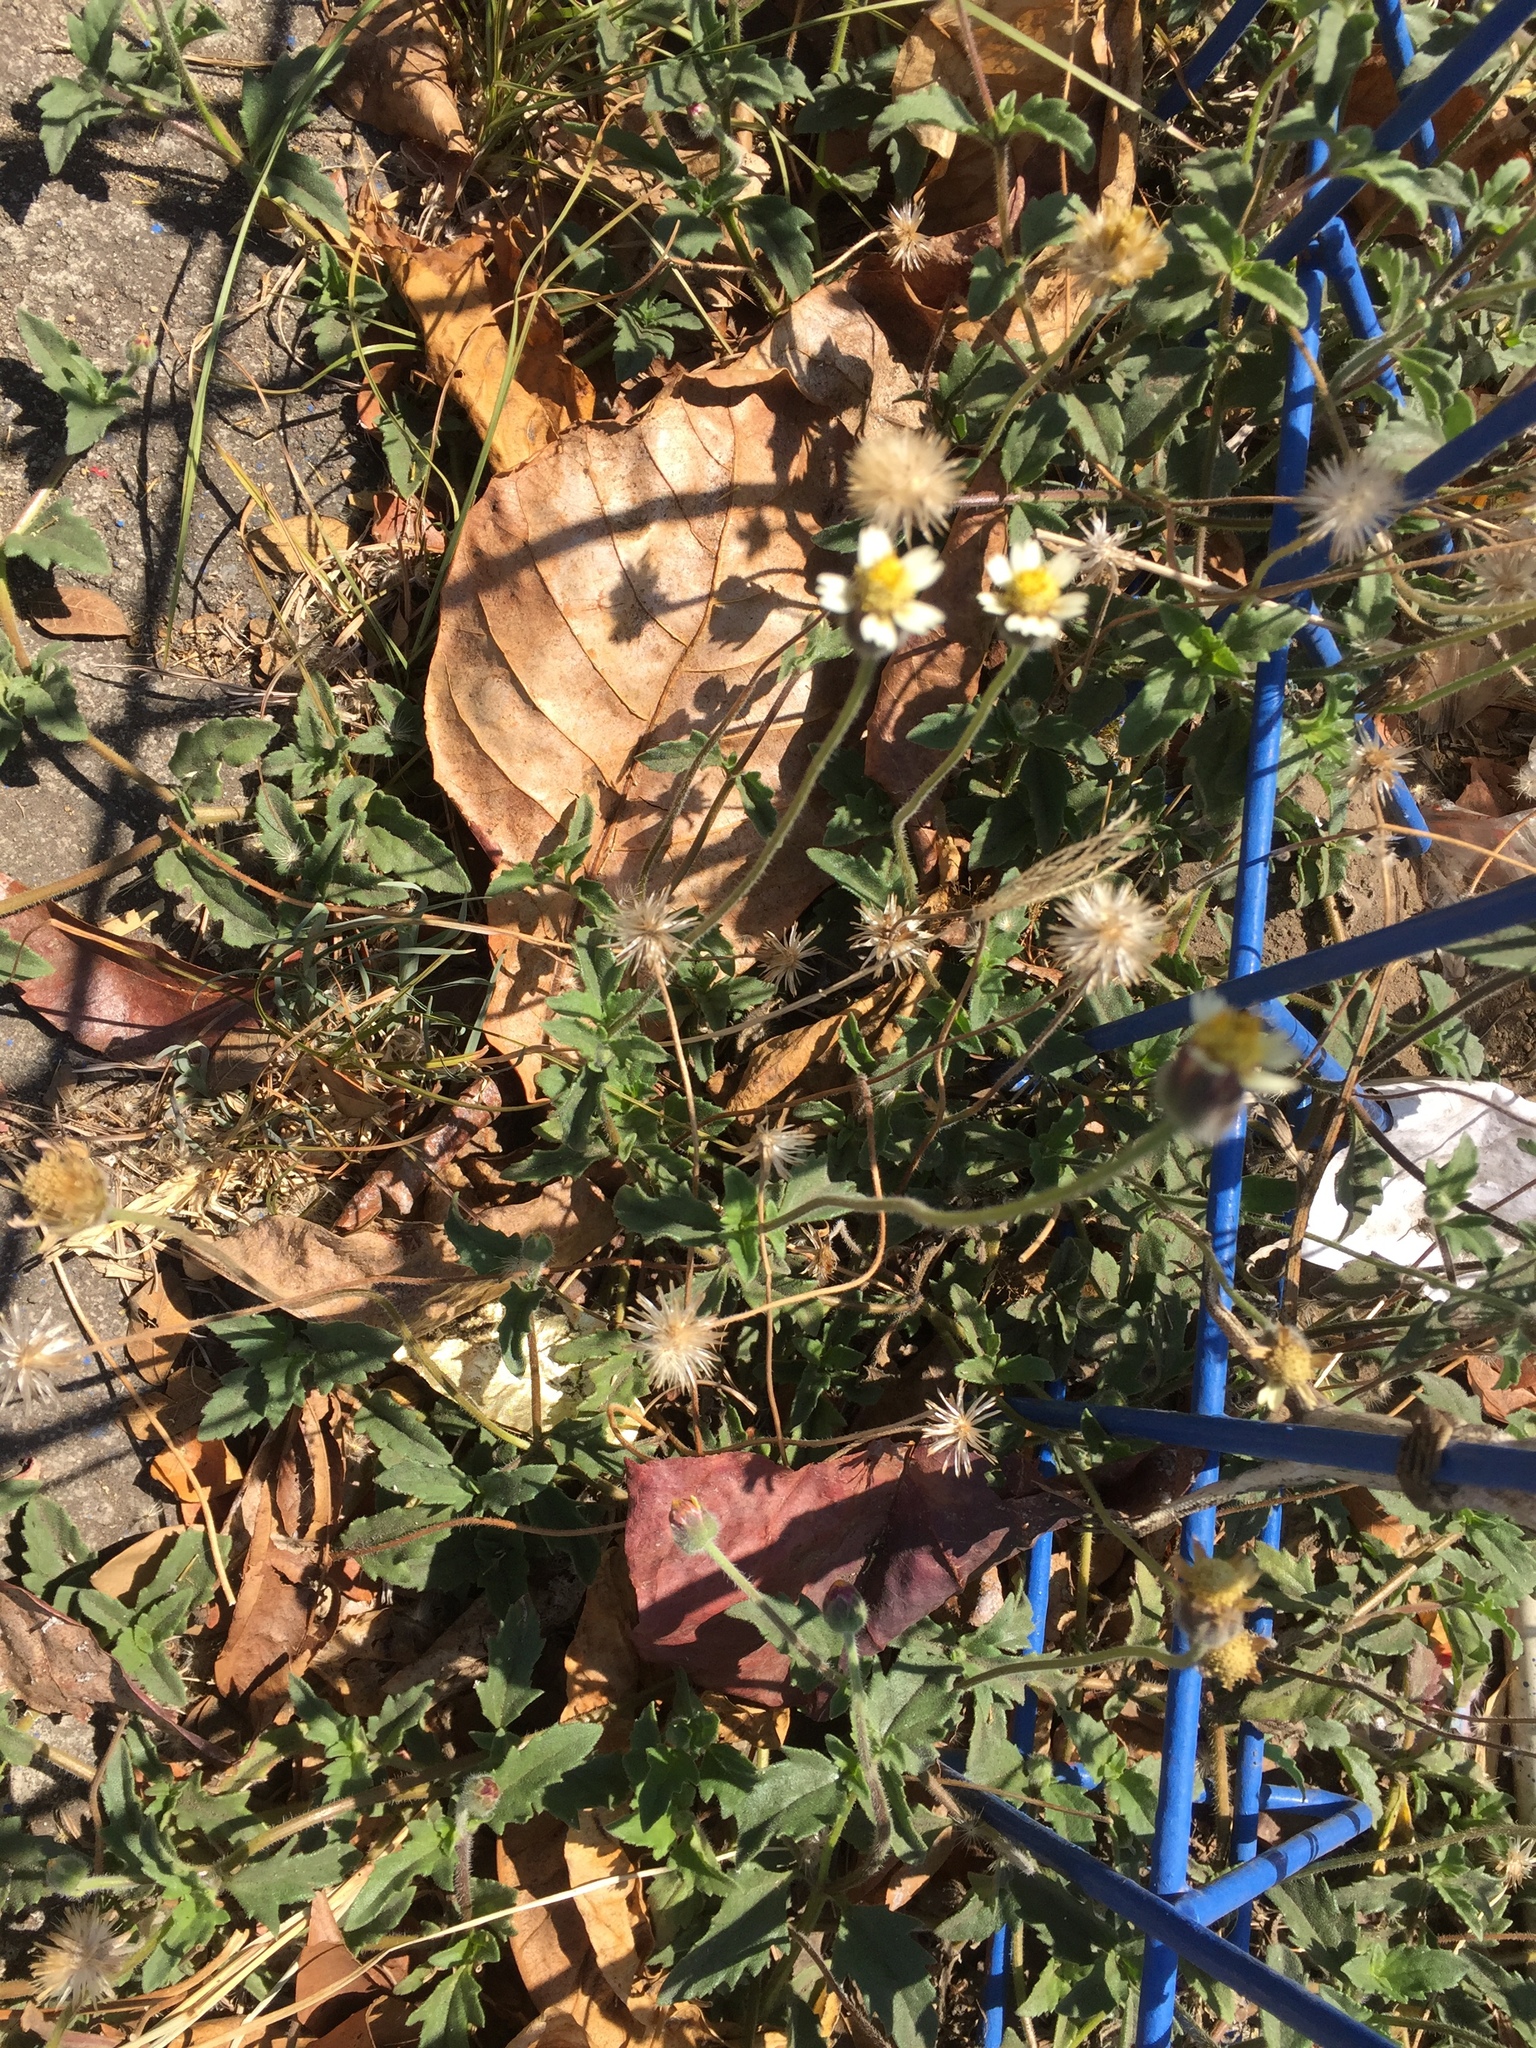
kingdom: Plantae
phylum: Tracheophyta
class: Magnoliopsida
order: Asterales
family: Asteraceae
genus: Tridax
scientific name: Tridax procumbens
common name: Coatbuttons
